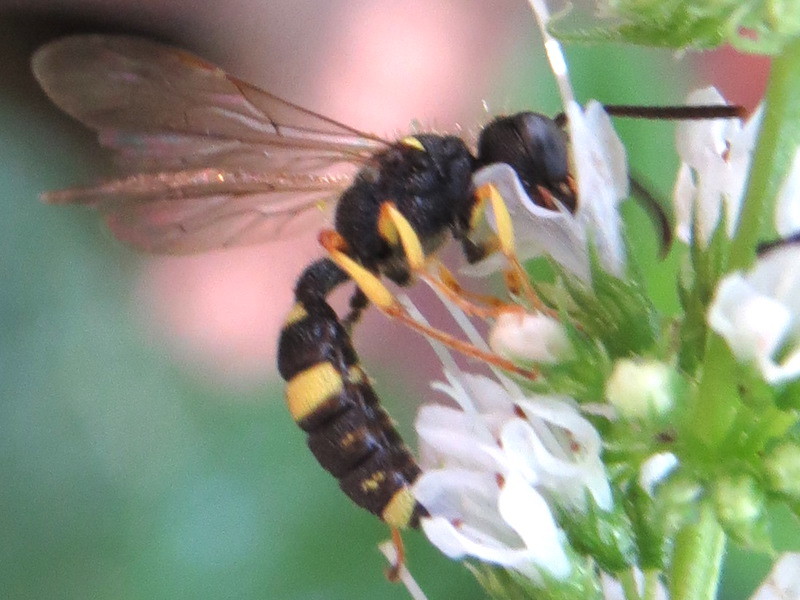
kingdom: Animalia
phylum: Arthropoda
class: Insecta
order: Hymenoptera
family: Crabronidae
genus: Cerceris
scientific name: Cerceris rybyensis
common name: Ornate tailed digger wasp
